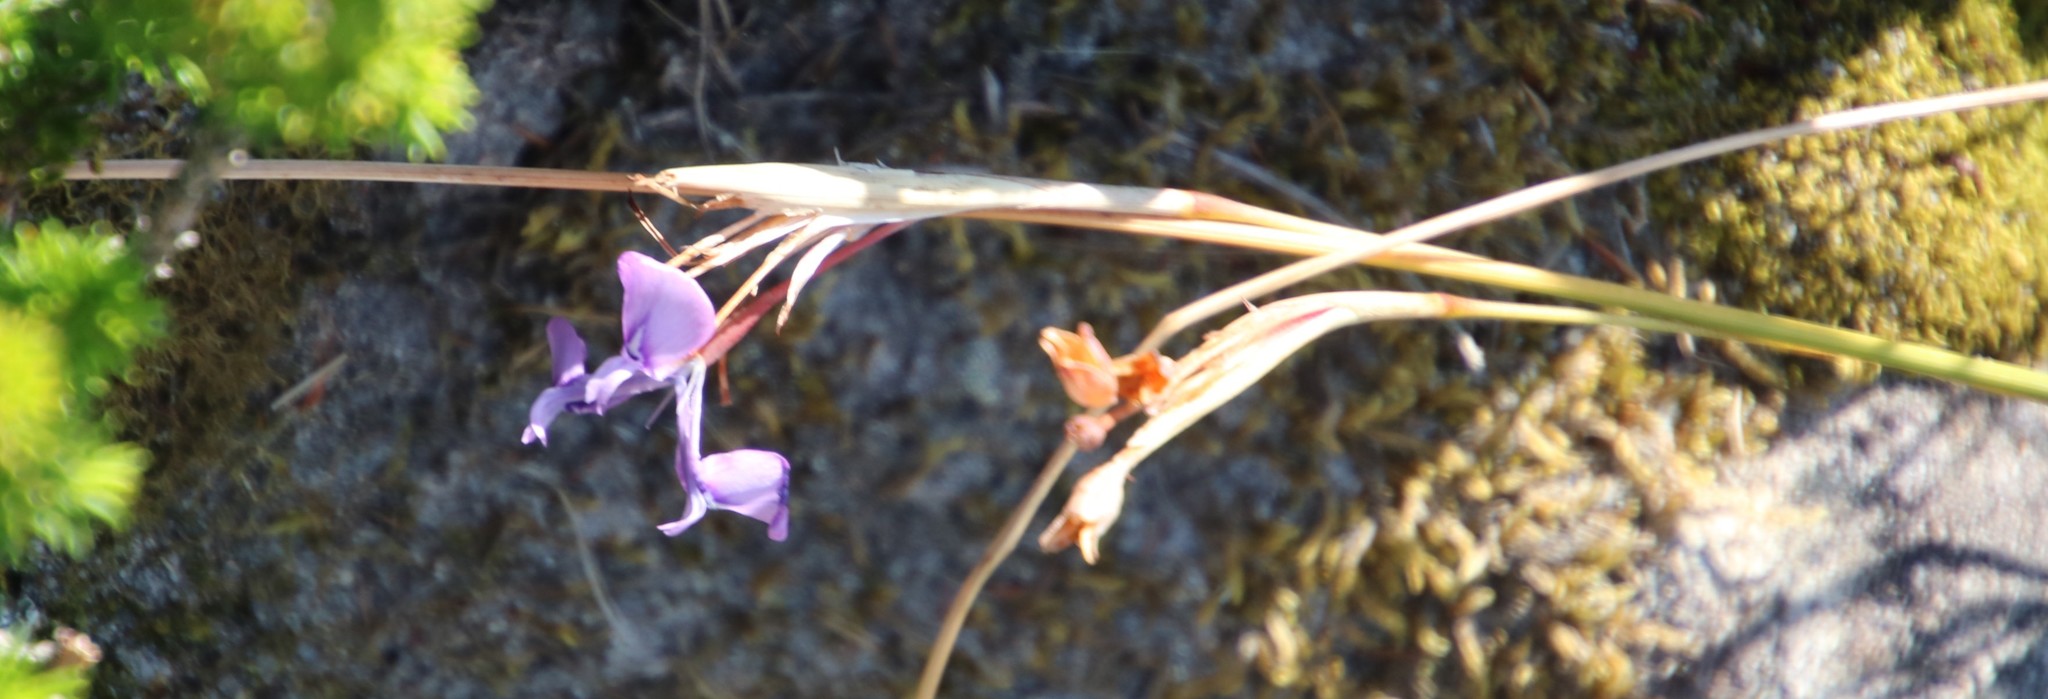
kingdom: Plantae
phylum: Tracheophyta
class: Liliopsida
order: Asparagales
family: Iridaceae
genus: Moraea
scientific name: Moraea tripetala
